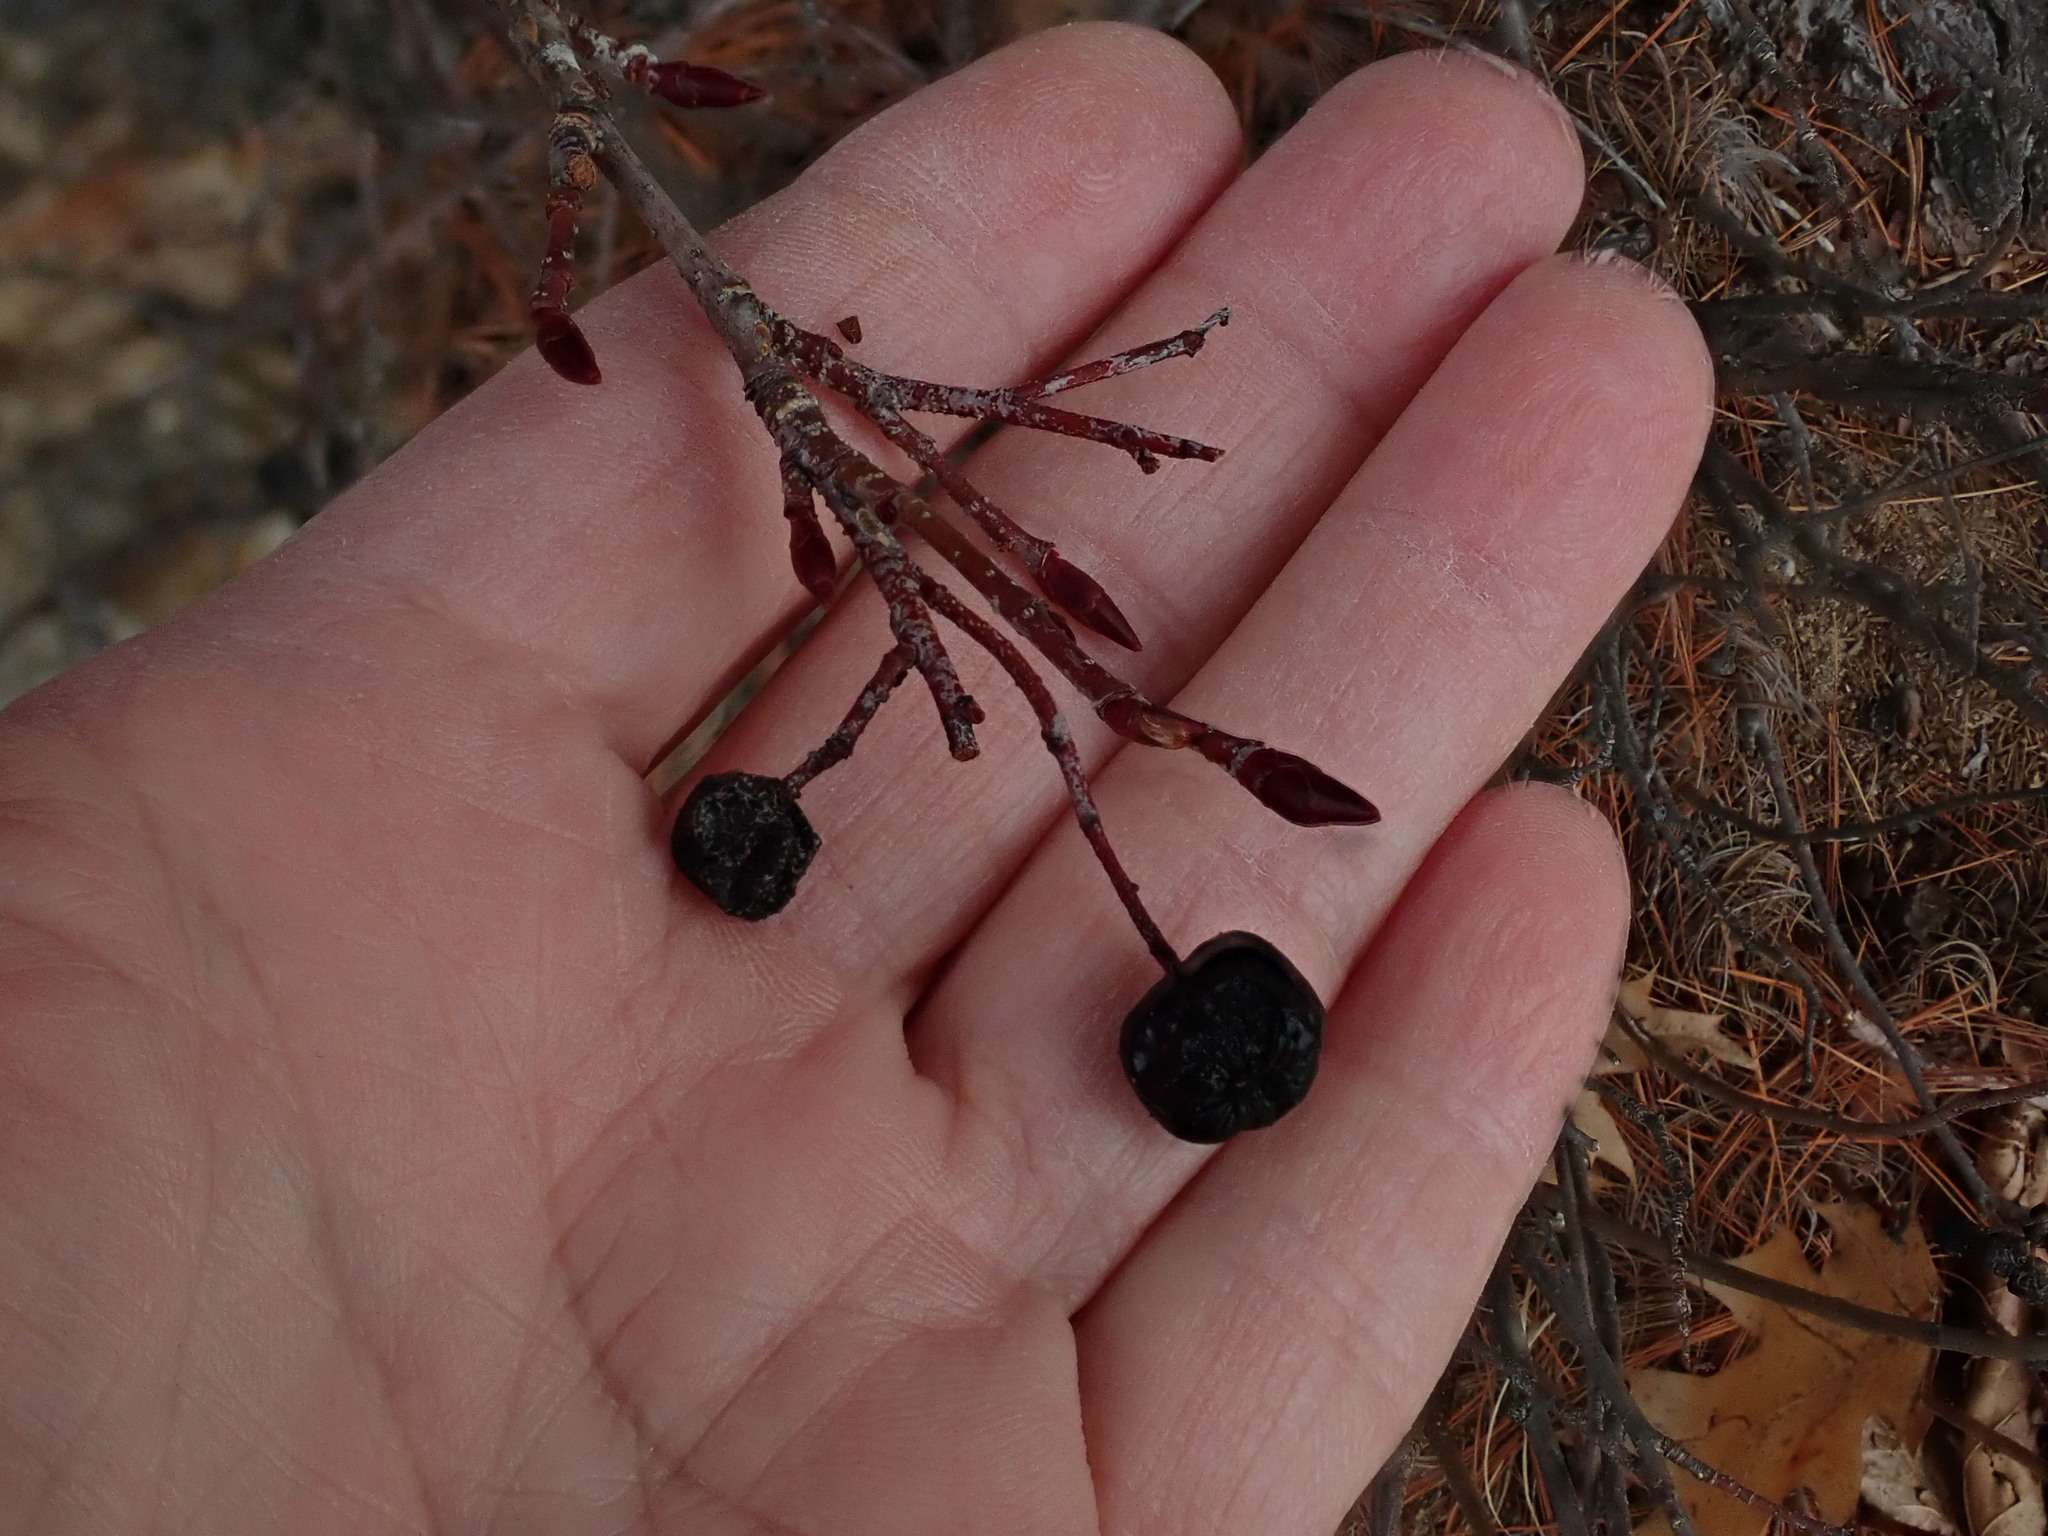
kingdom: Plantae
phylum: Tracheophyta
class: Magnoliopsida
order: Rosales
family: Rosaceae
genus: Aronia
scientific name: Aronia melanocarpa
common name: Black chokeberry
